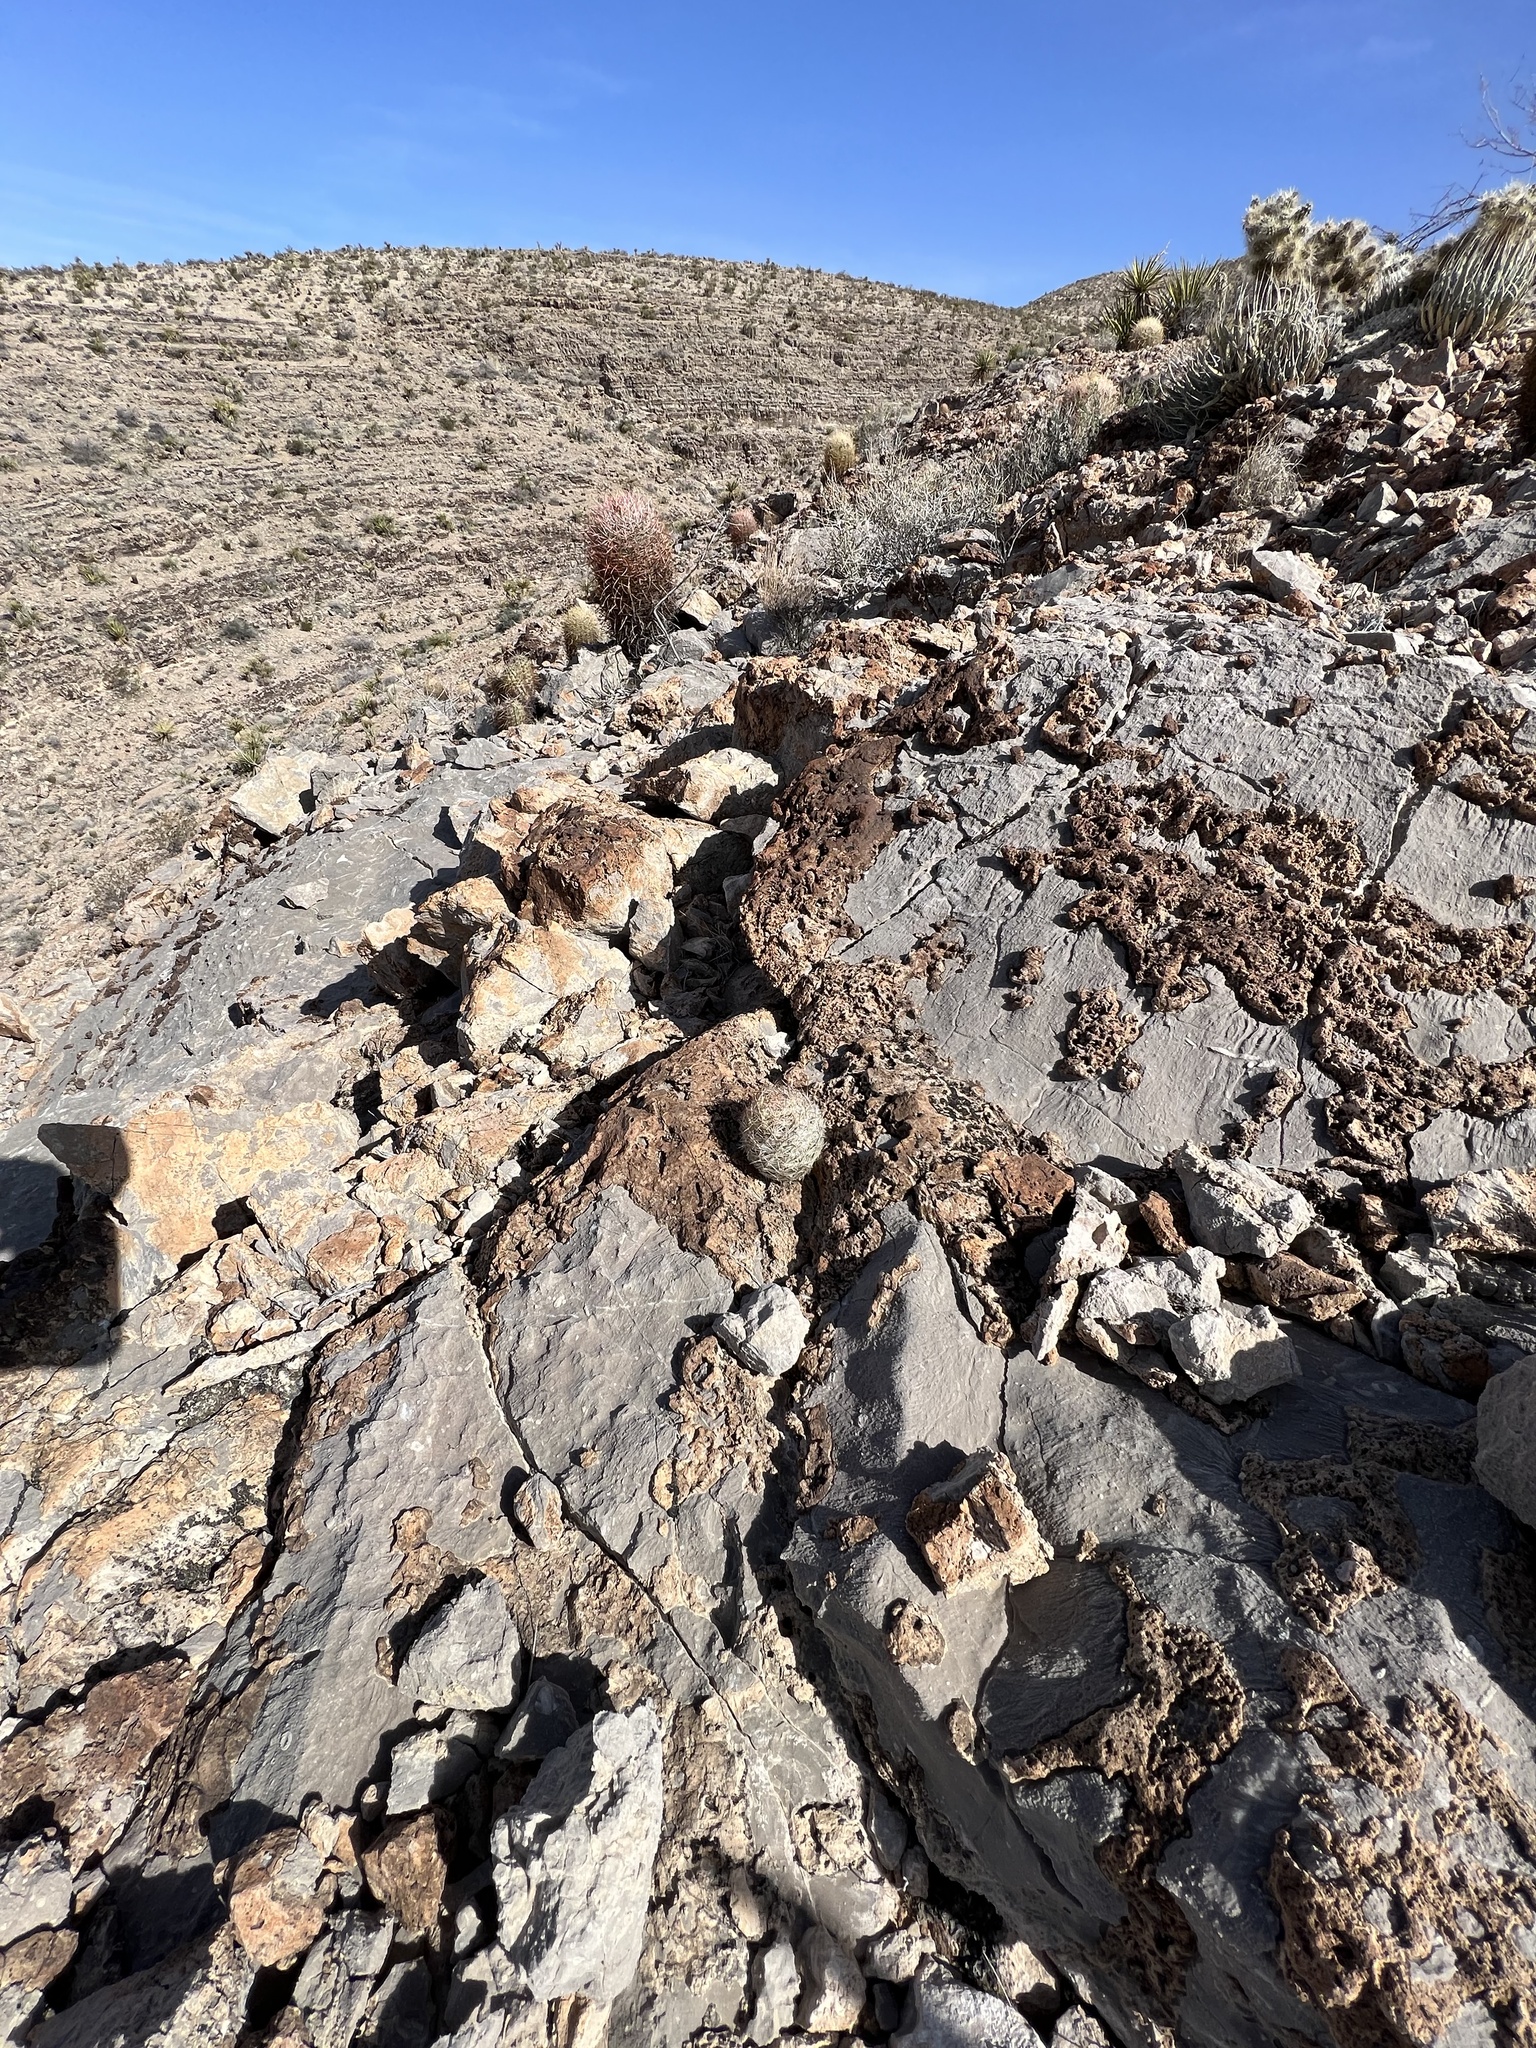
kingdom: Plantae
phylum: Tracheophyta
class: Magnoliopsida
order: Caryophyllales
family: Cactaceae
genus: Pelecyphora
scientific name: Pelecyphora dasyacantha
